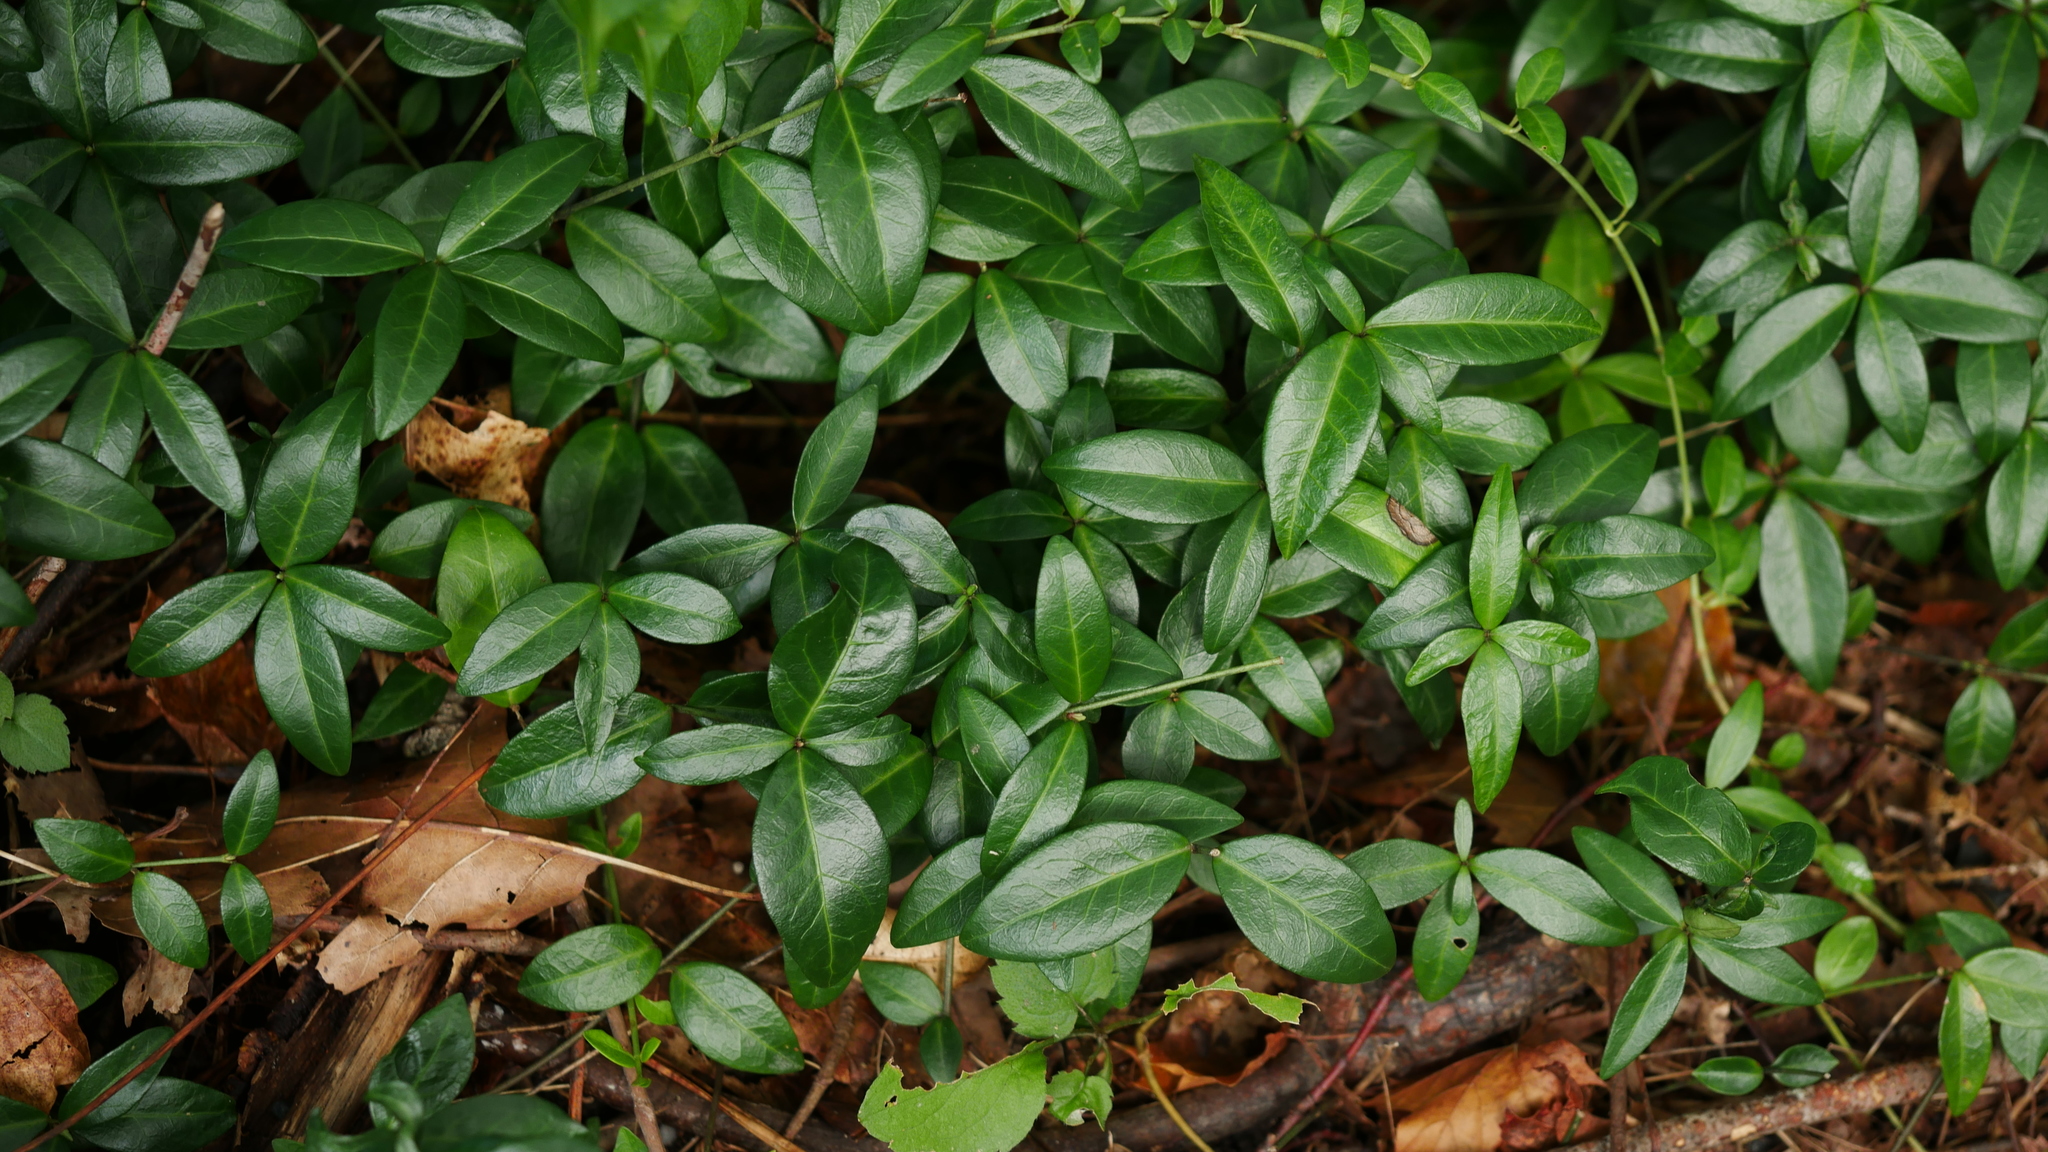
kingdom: Plantae
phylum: Tracheophyta
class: Magnoliopsida
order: Gentianales
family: Apocynaceae
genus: Vinca
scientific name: Vinca minor
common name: Lesser periwinkle
